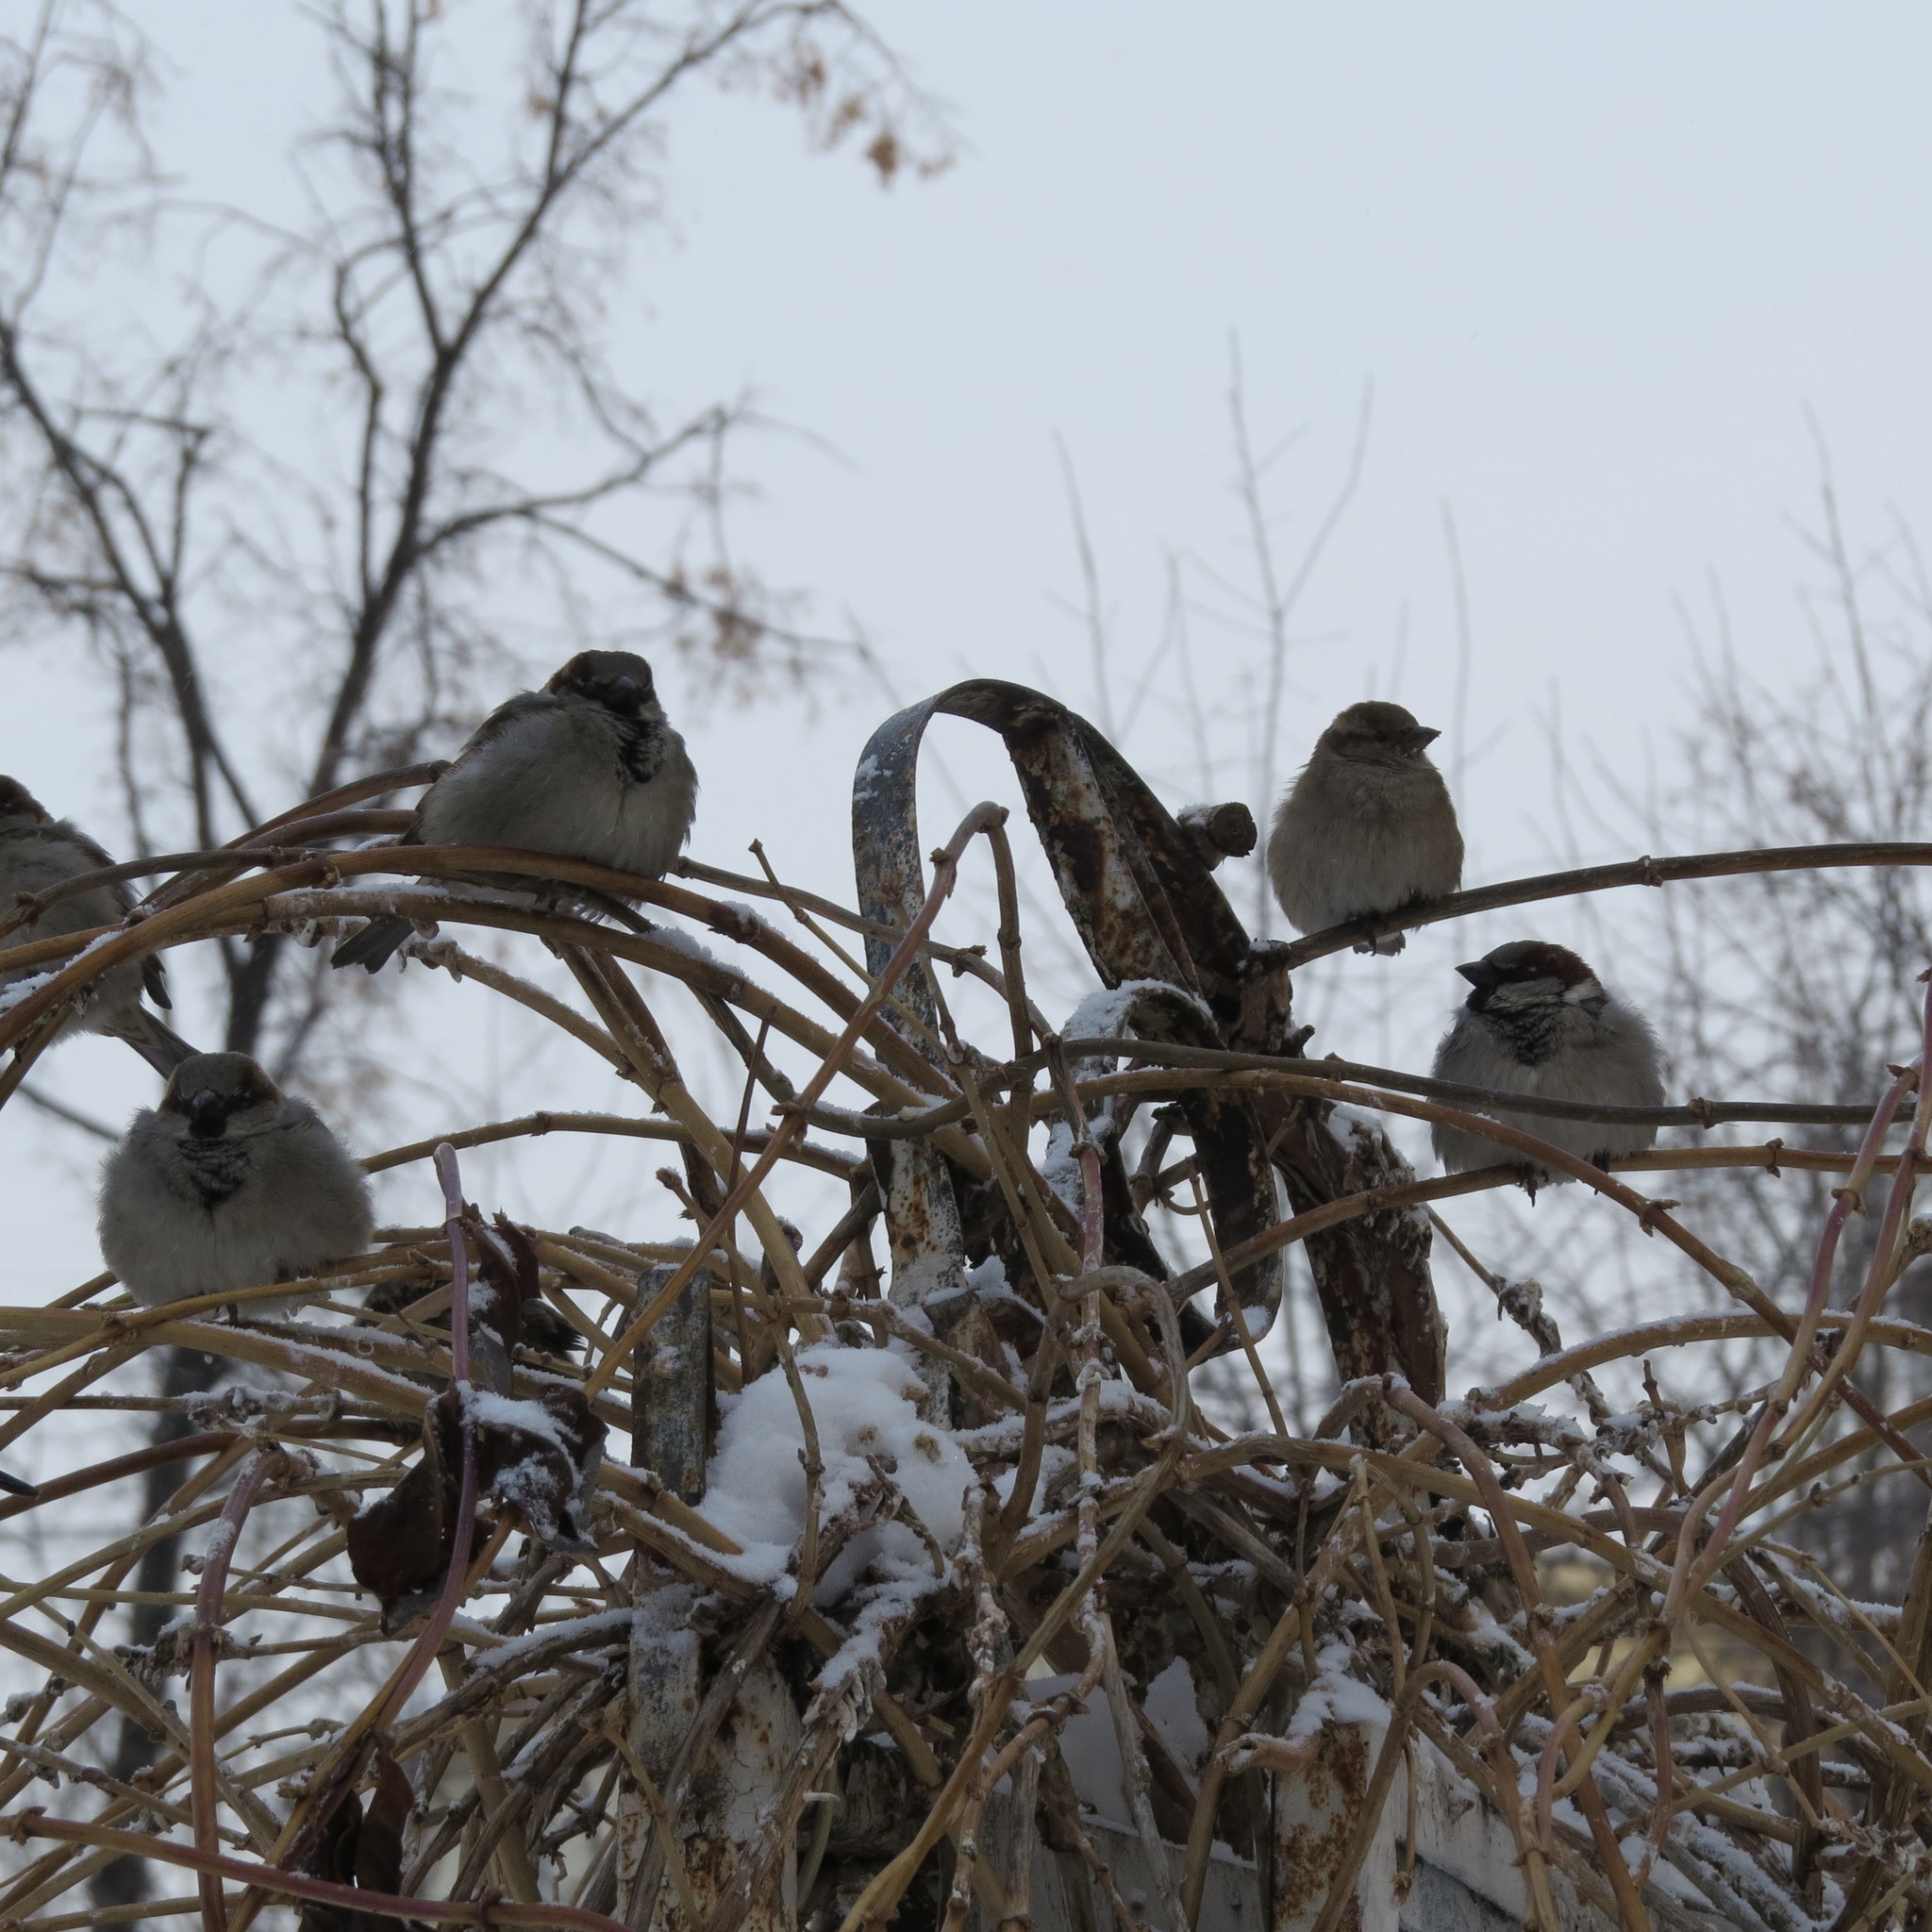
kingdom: Animalia
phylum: Chordata
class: Aves
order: Passeriformes
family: Passeridae
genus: Passer
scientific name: Passer domesticus
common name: House sparrow
